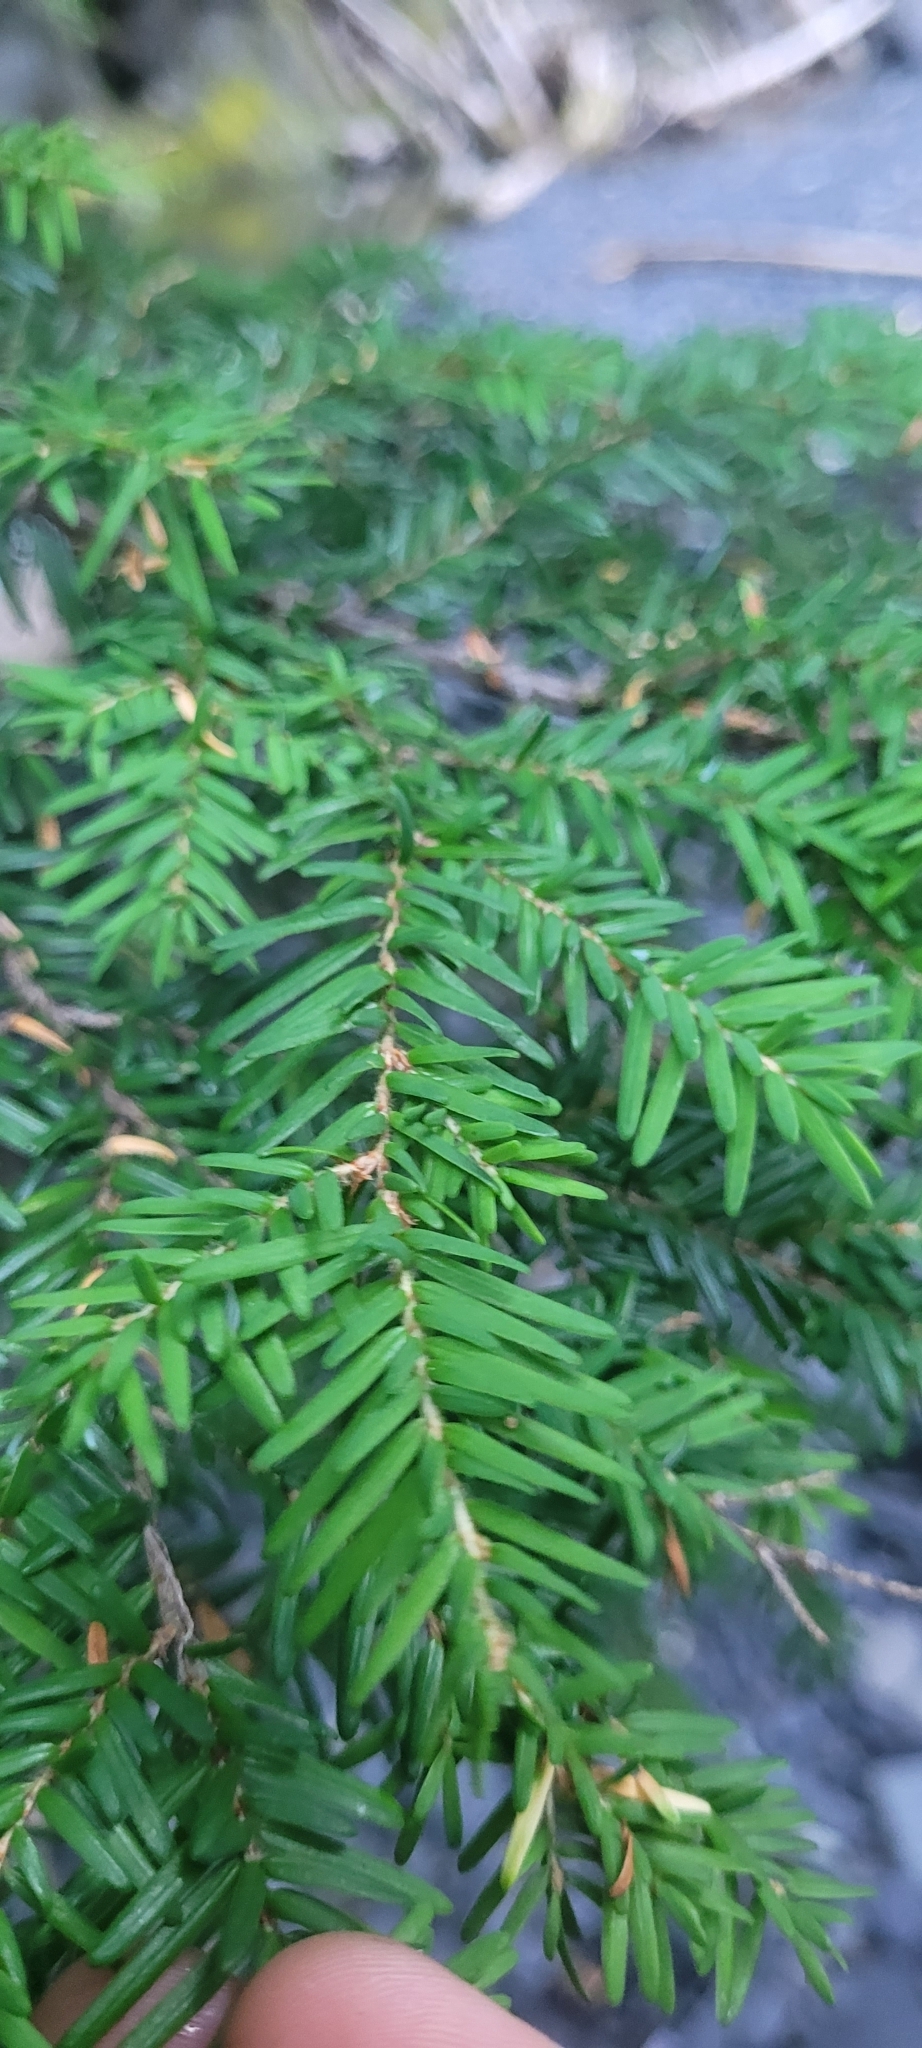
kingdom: Plantae
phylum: Tracheophyta
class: Pinopsida
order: Pinales
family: Pinaceae
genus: Tsuga
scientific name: Tsuga heterophylla
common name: Western hemlock
